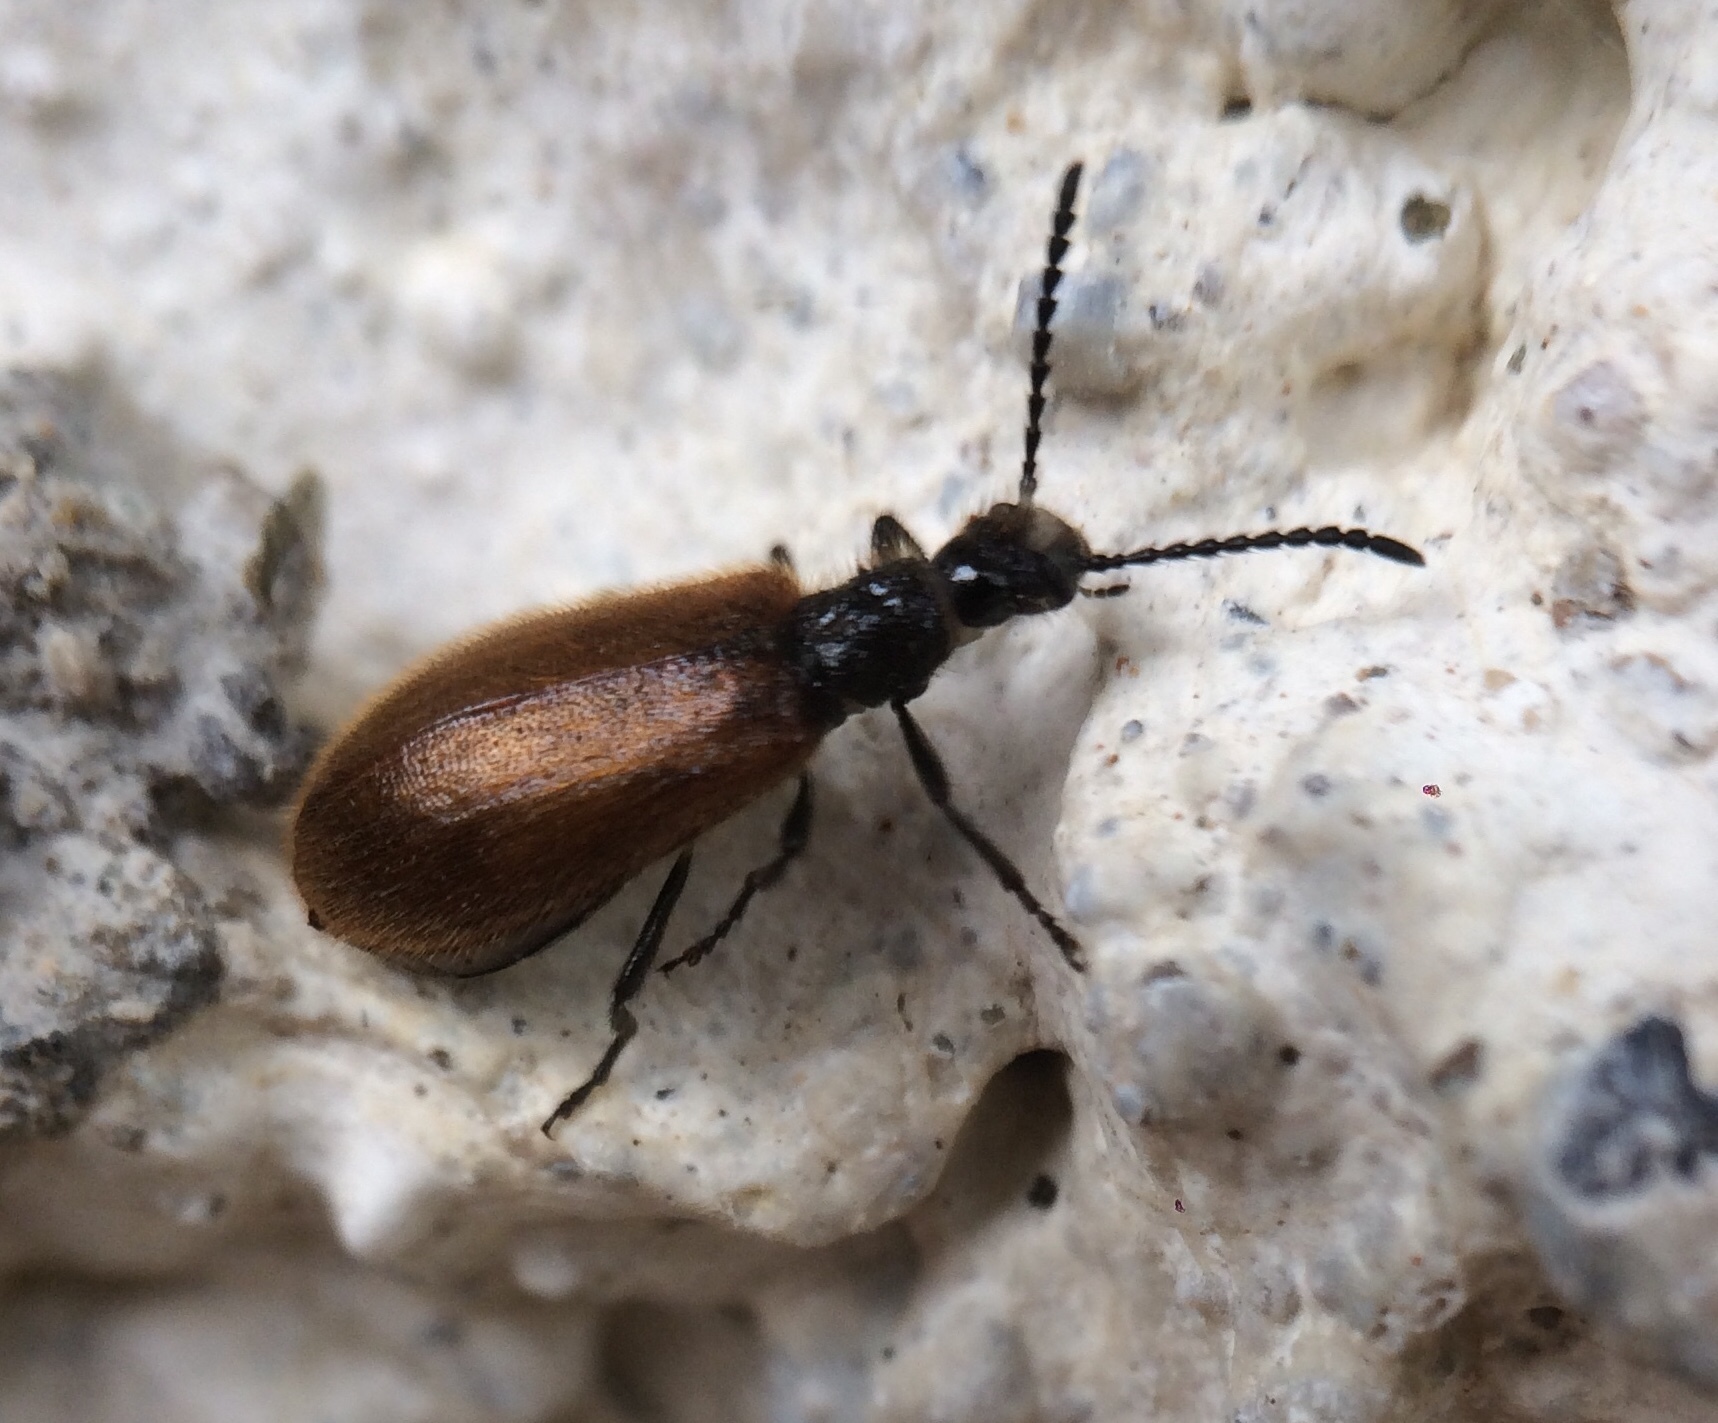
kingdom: Animalia
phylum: Arthropoda
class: Insecta
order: Coleoptera
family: Tenebrionidae
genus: Lagria
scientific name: Lagria hirta
